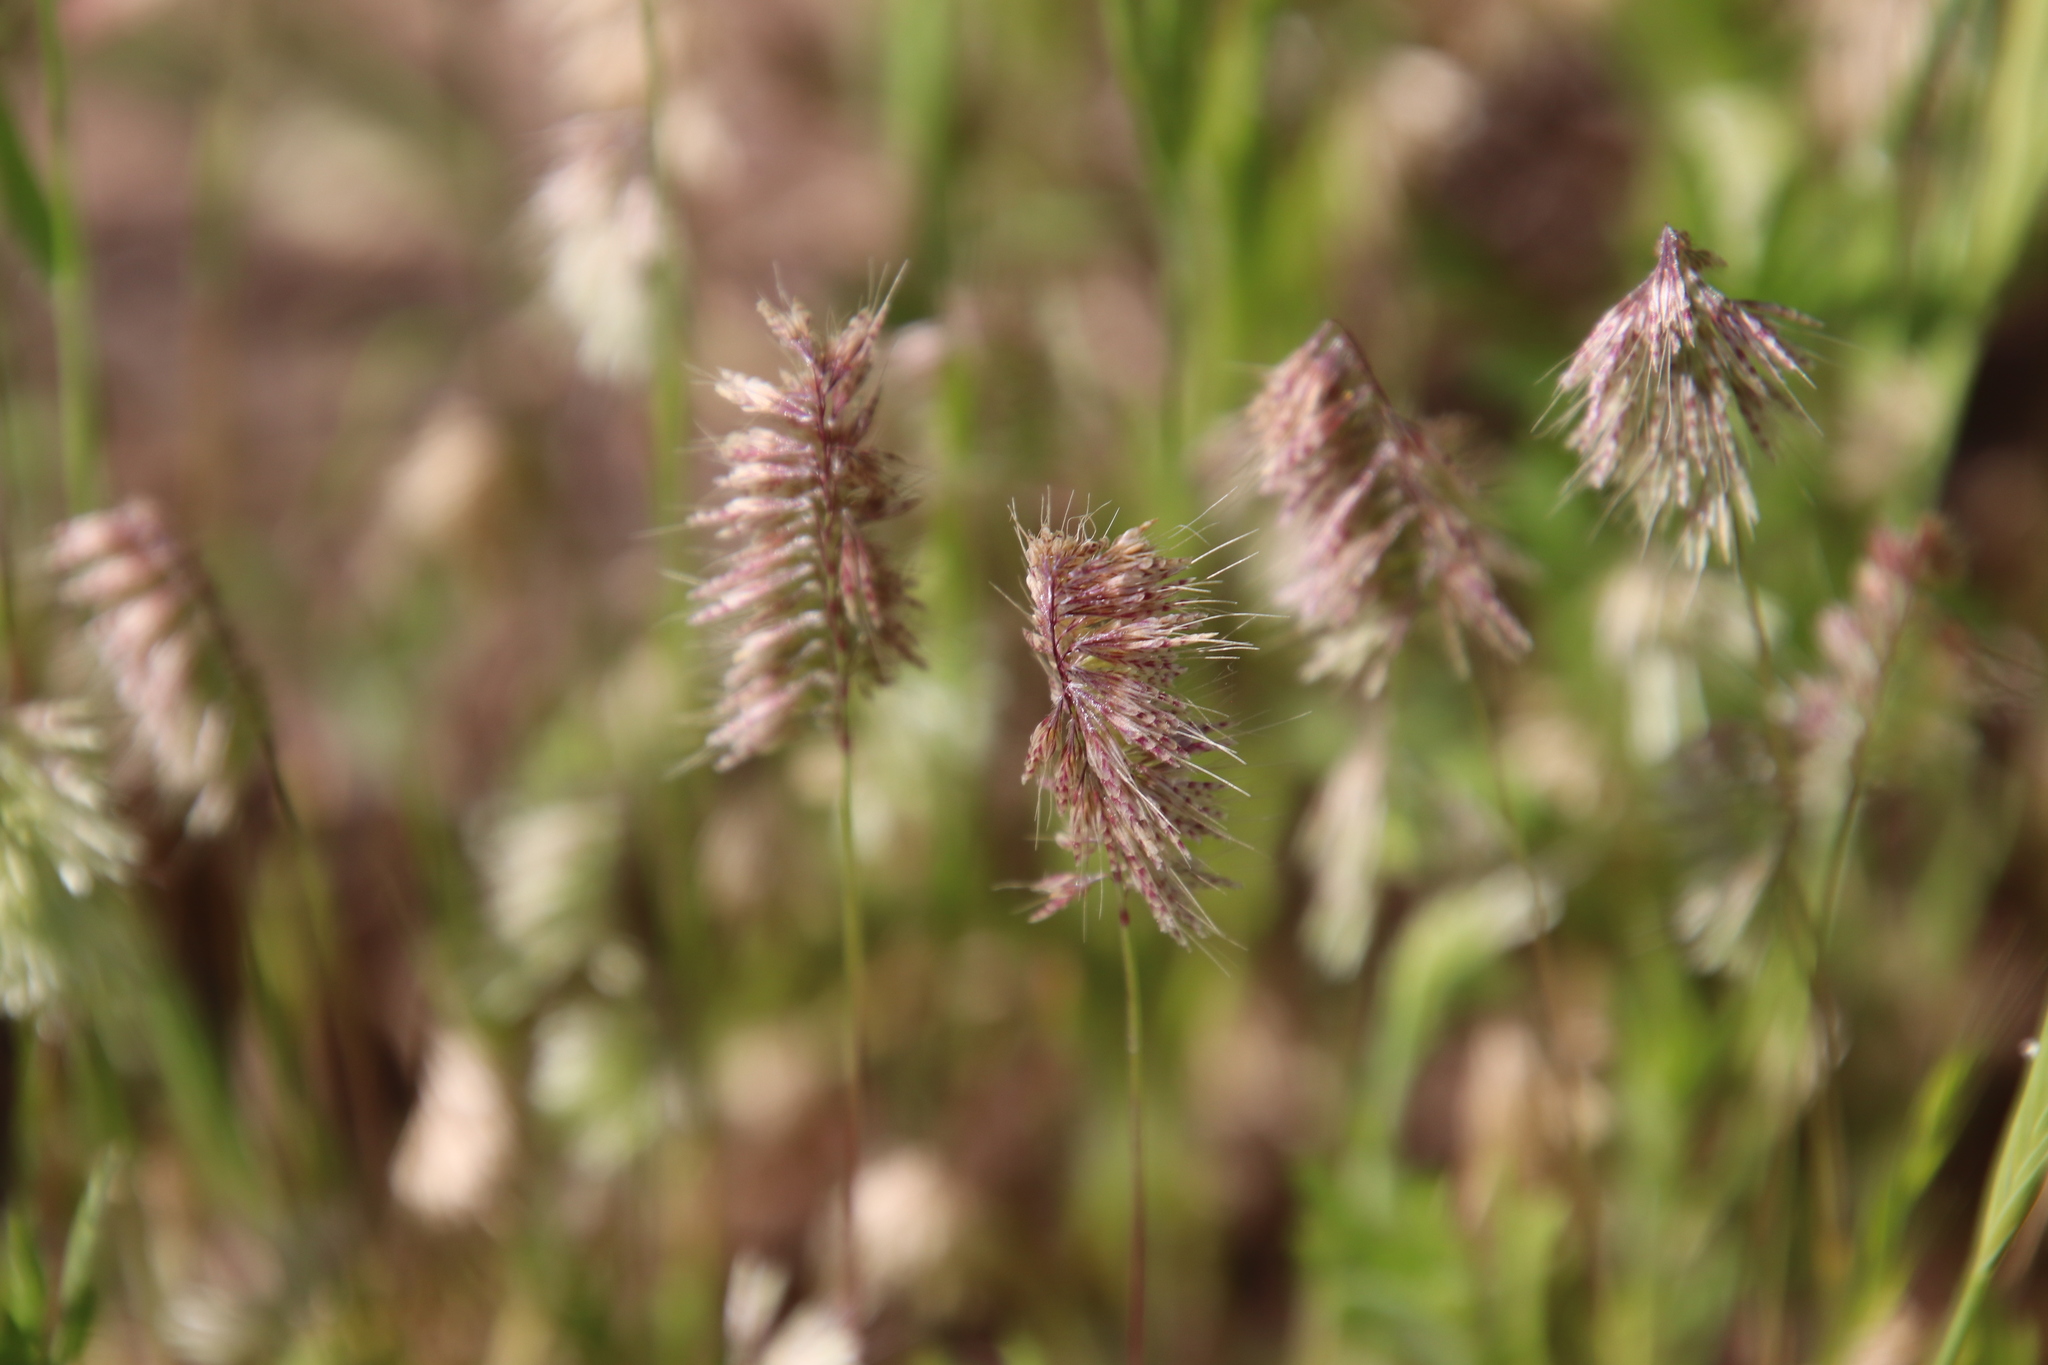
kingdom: Plantae
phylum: Tracheophyta
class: Liliopsida
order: Poales
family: Poaceae
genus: Lamarckia
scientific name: Lamarckia aurea
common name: Golden dog's-tail
